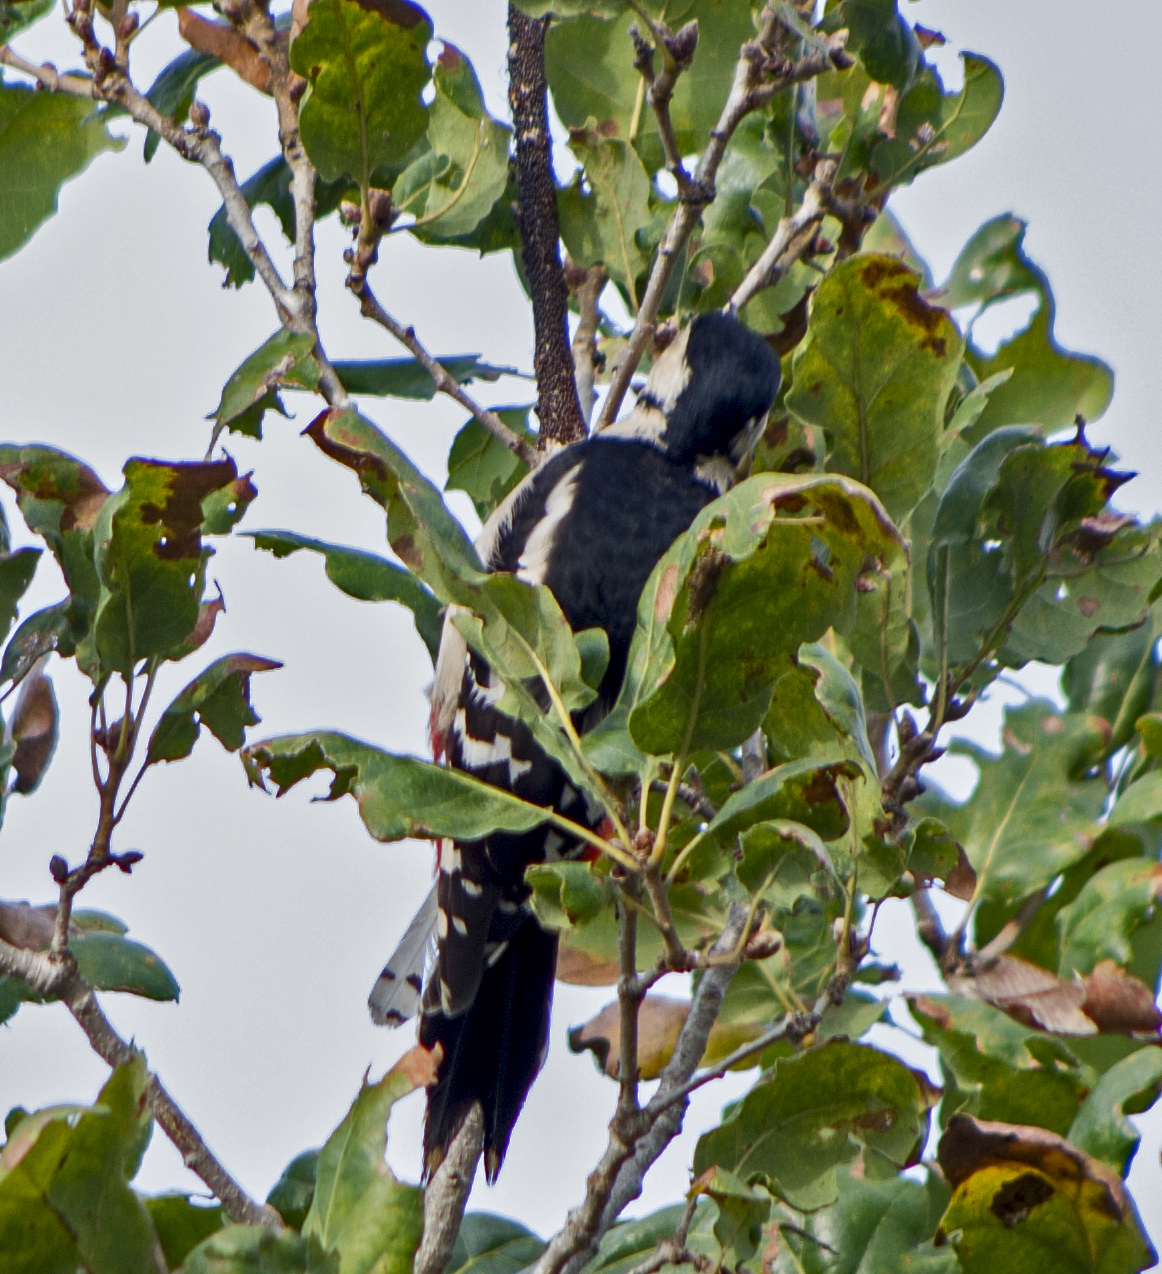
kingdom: Animalia
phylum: Chordata
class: Aves
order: Piciformes
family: Picidae
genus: Dendrocopos
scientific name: Dendrocopos major
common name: Great spotted woodpecker
